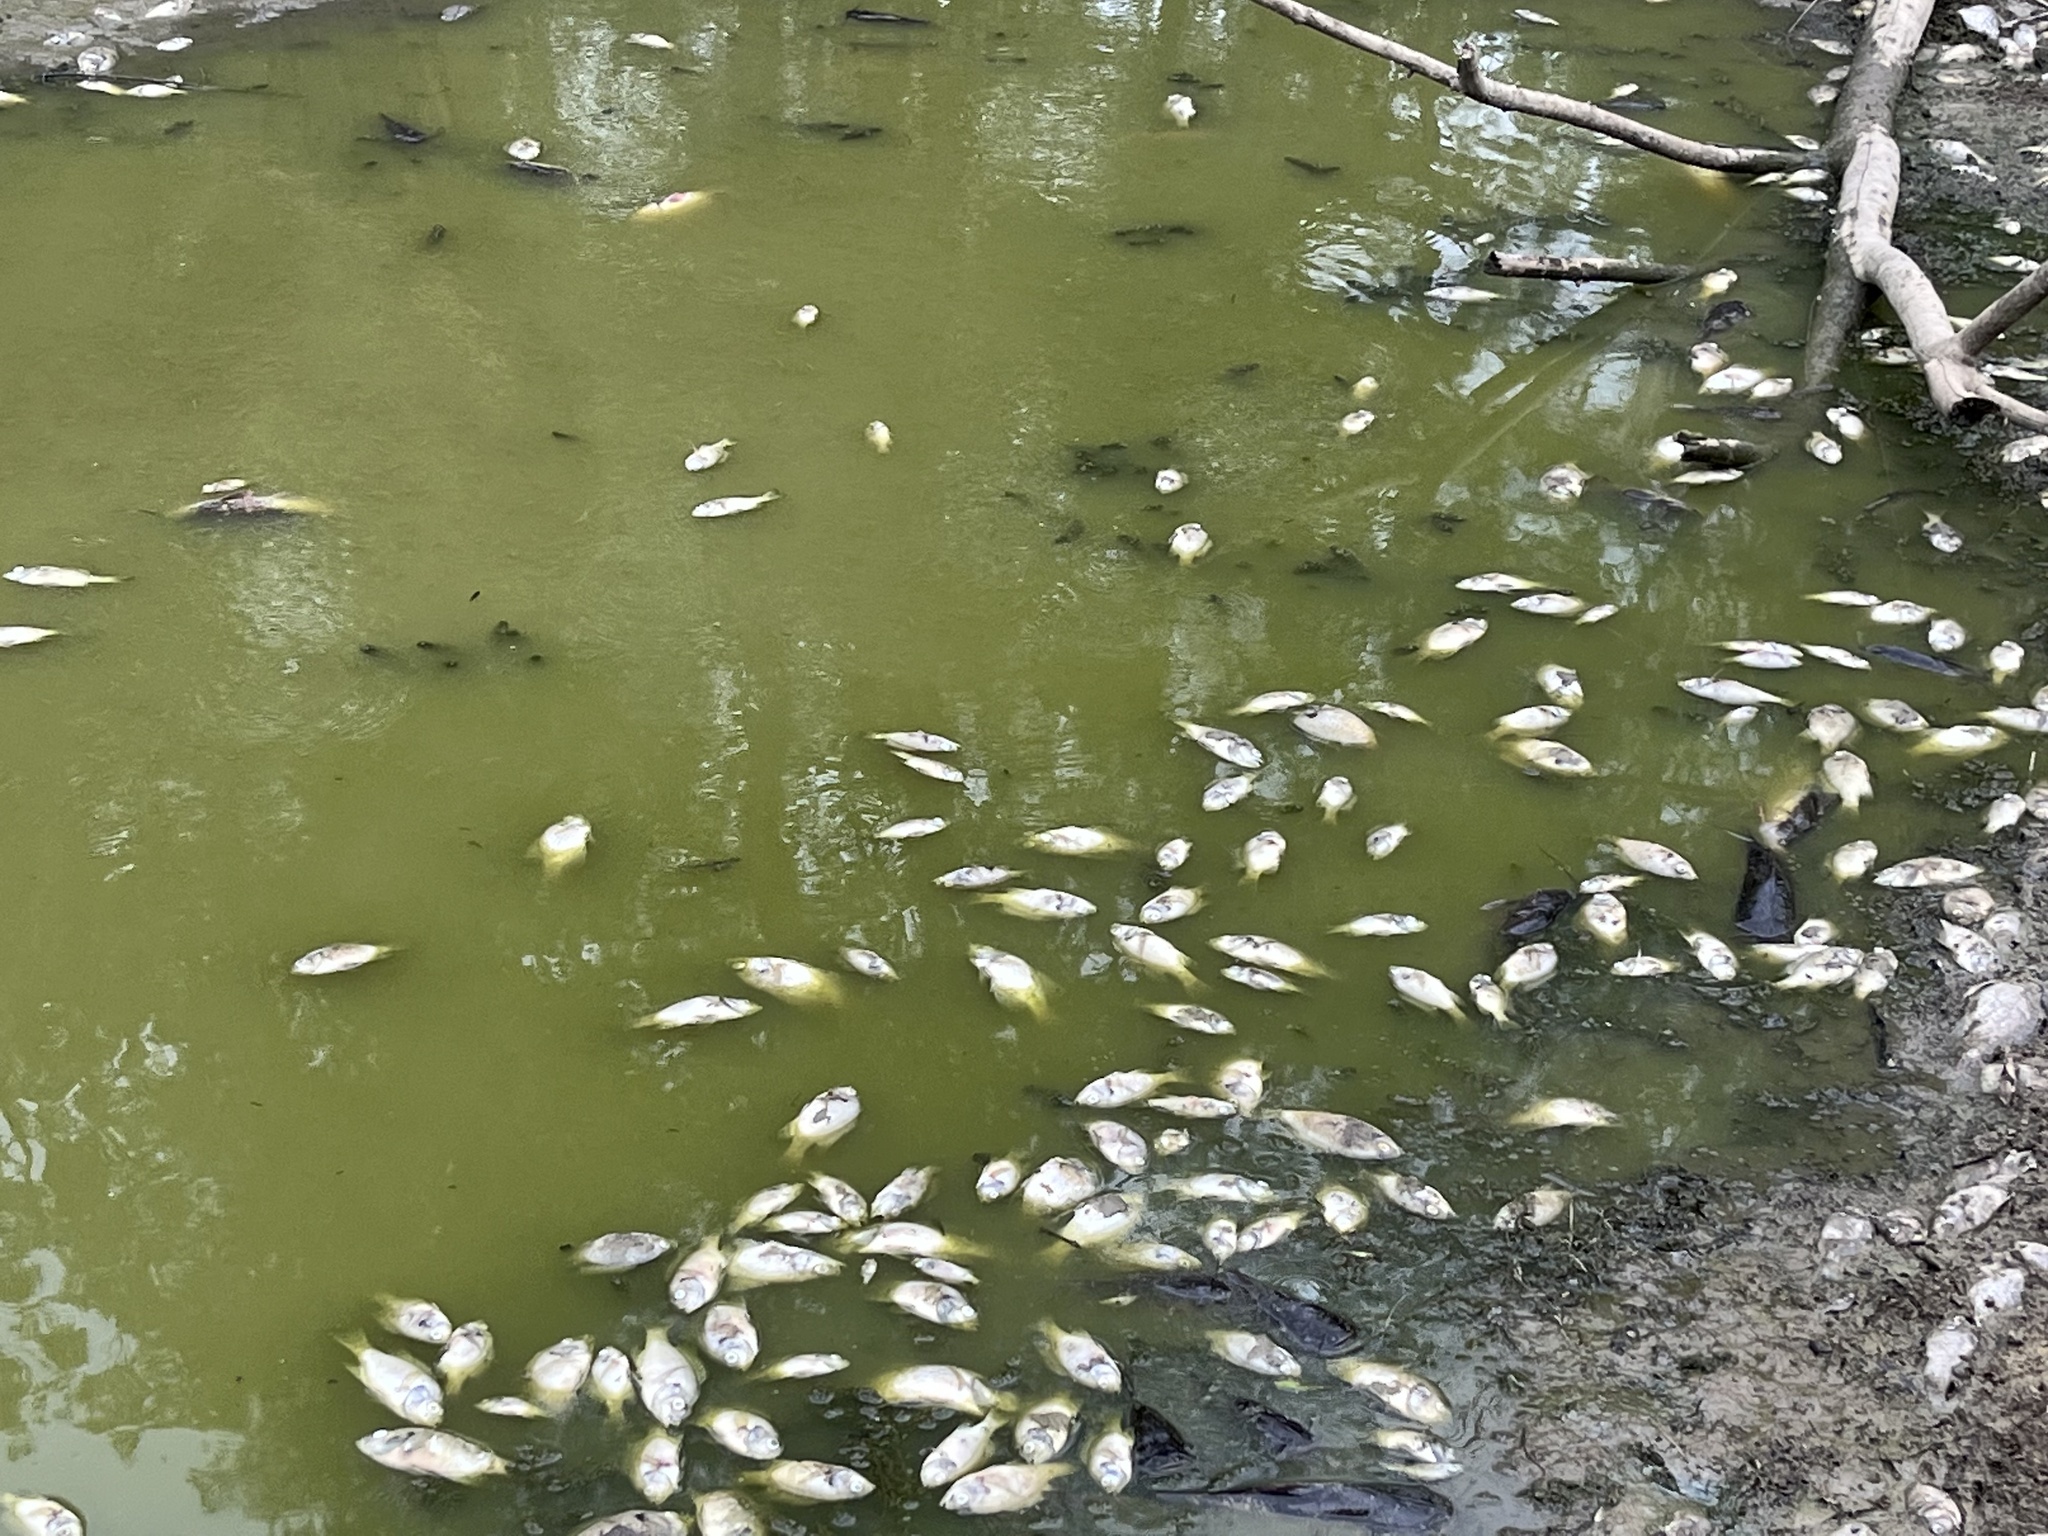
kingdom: Animalia
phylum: Chordata
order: Perciformes
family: Centrarchidae
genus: Pomoxis
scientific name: Pomoxis nigromaculatus
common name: Black crappie
